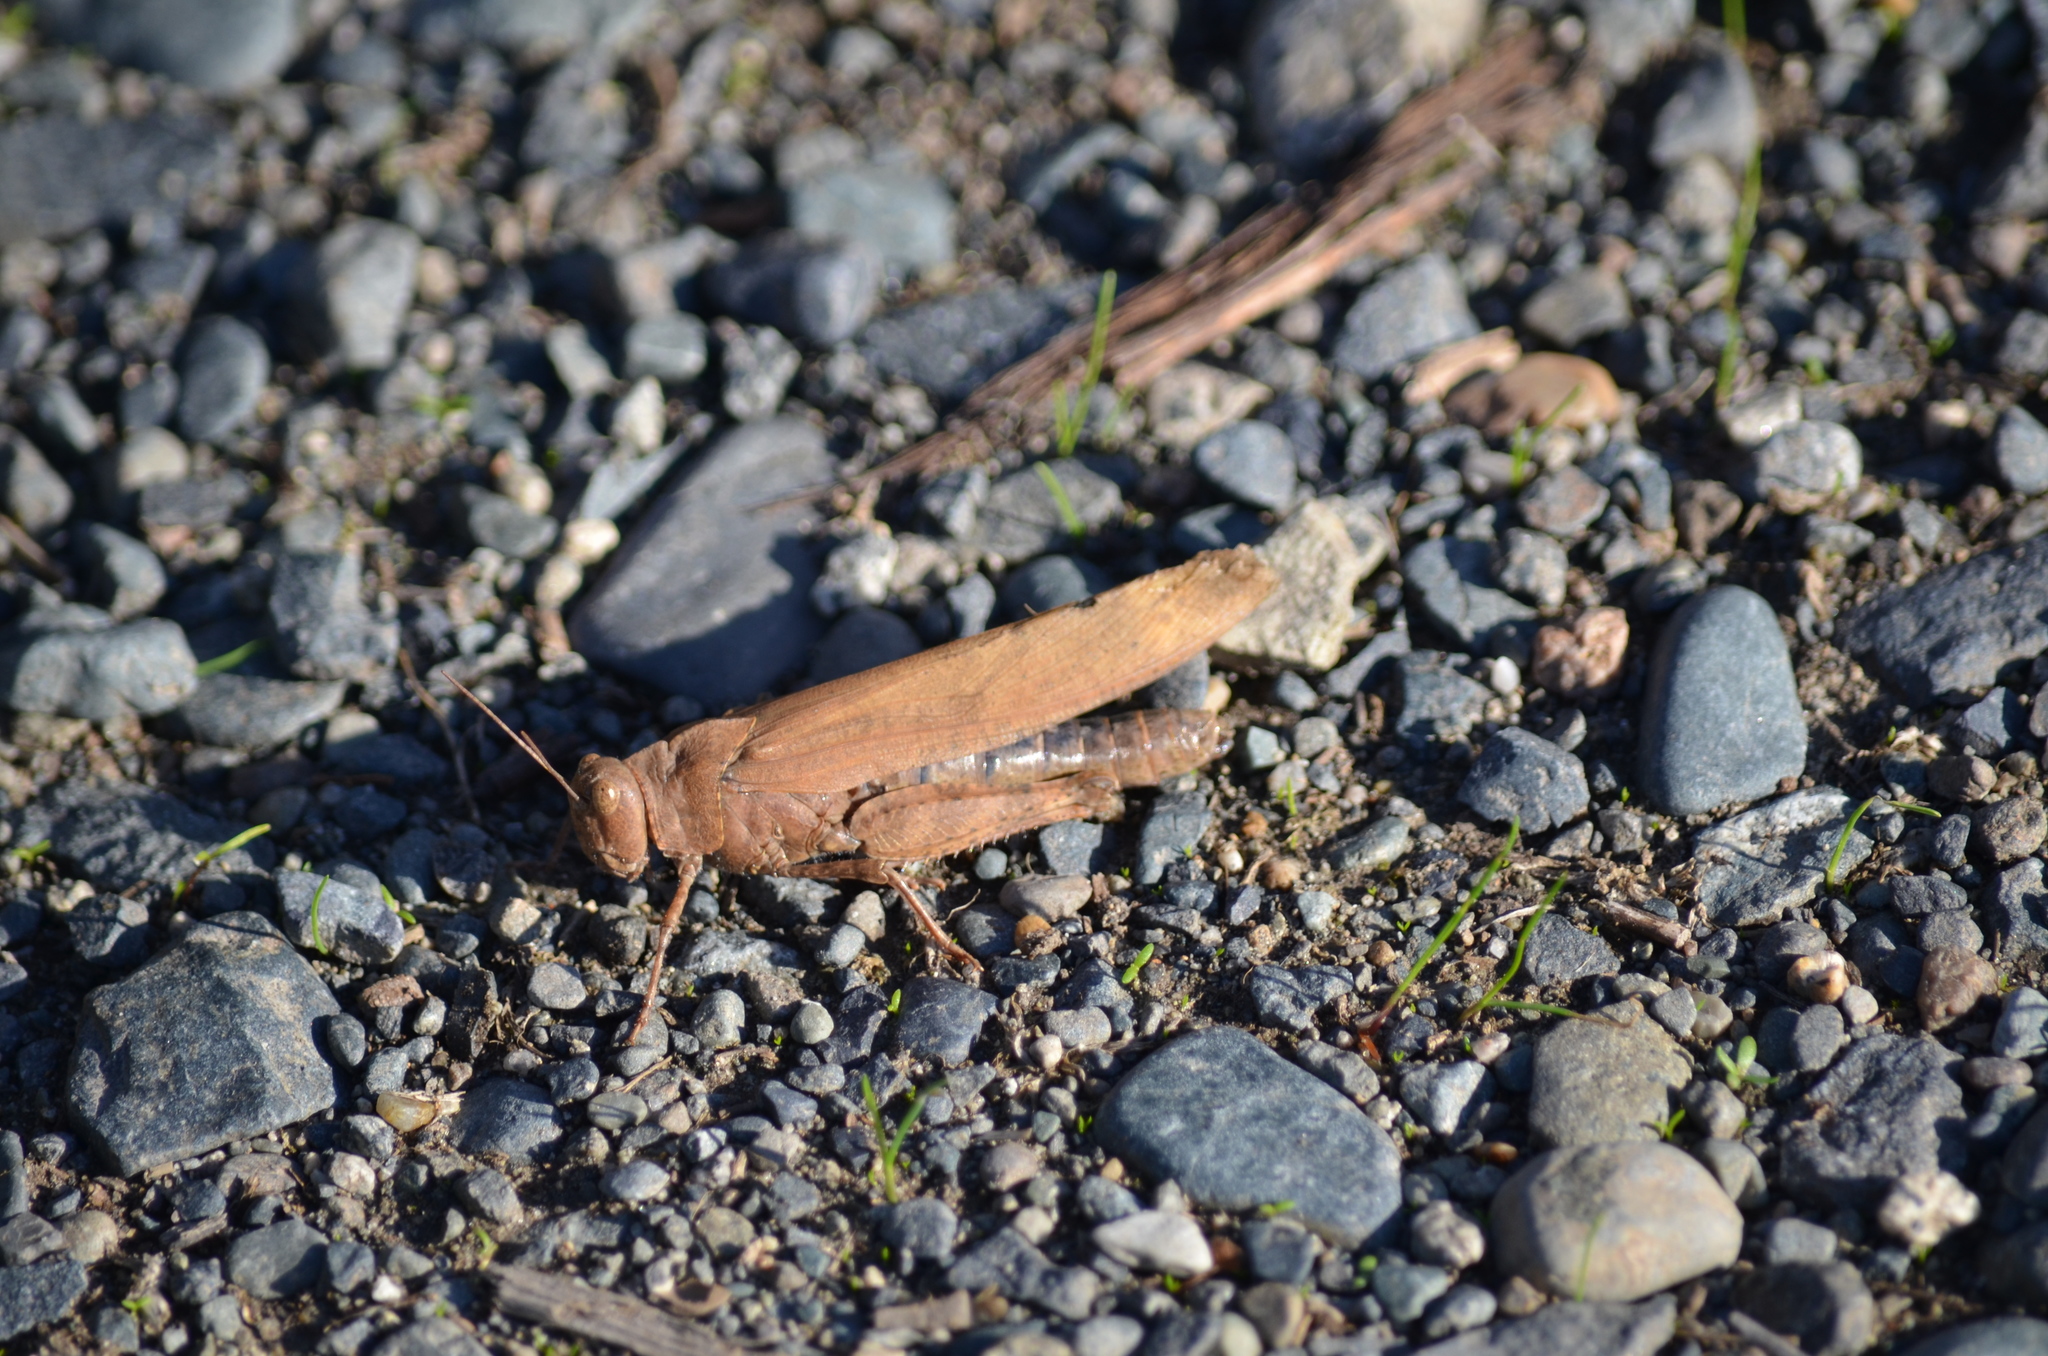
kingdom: Animalia
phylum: Arthropoda
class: Insecta
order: Orthoptera
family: Acrididae
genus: Dissosteira
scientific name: Dissosteira carolina
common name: Carolina grasshopper
